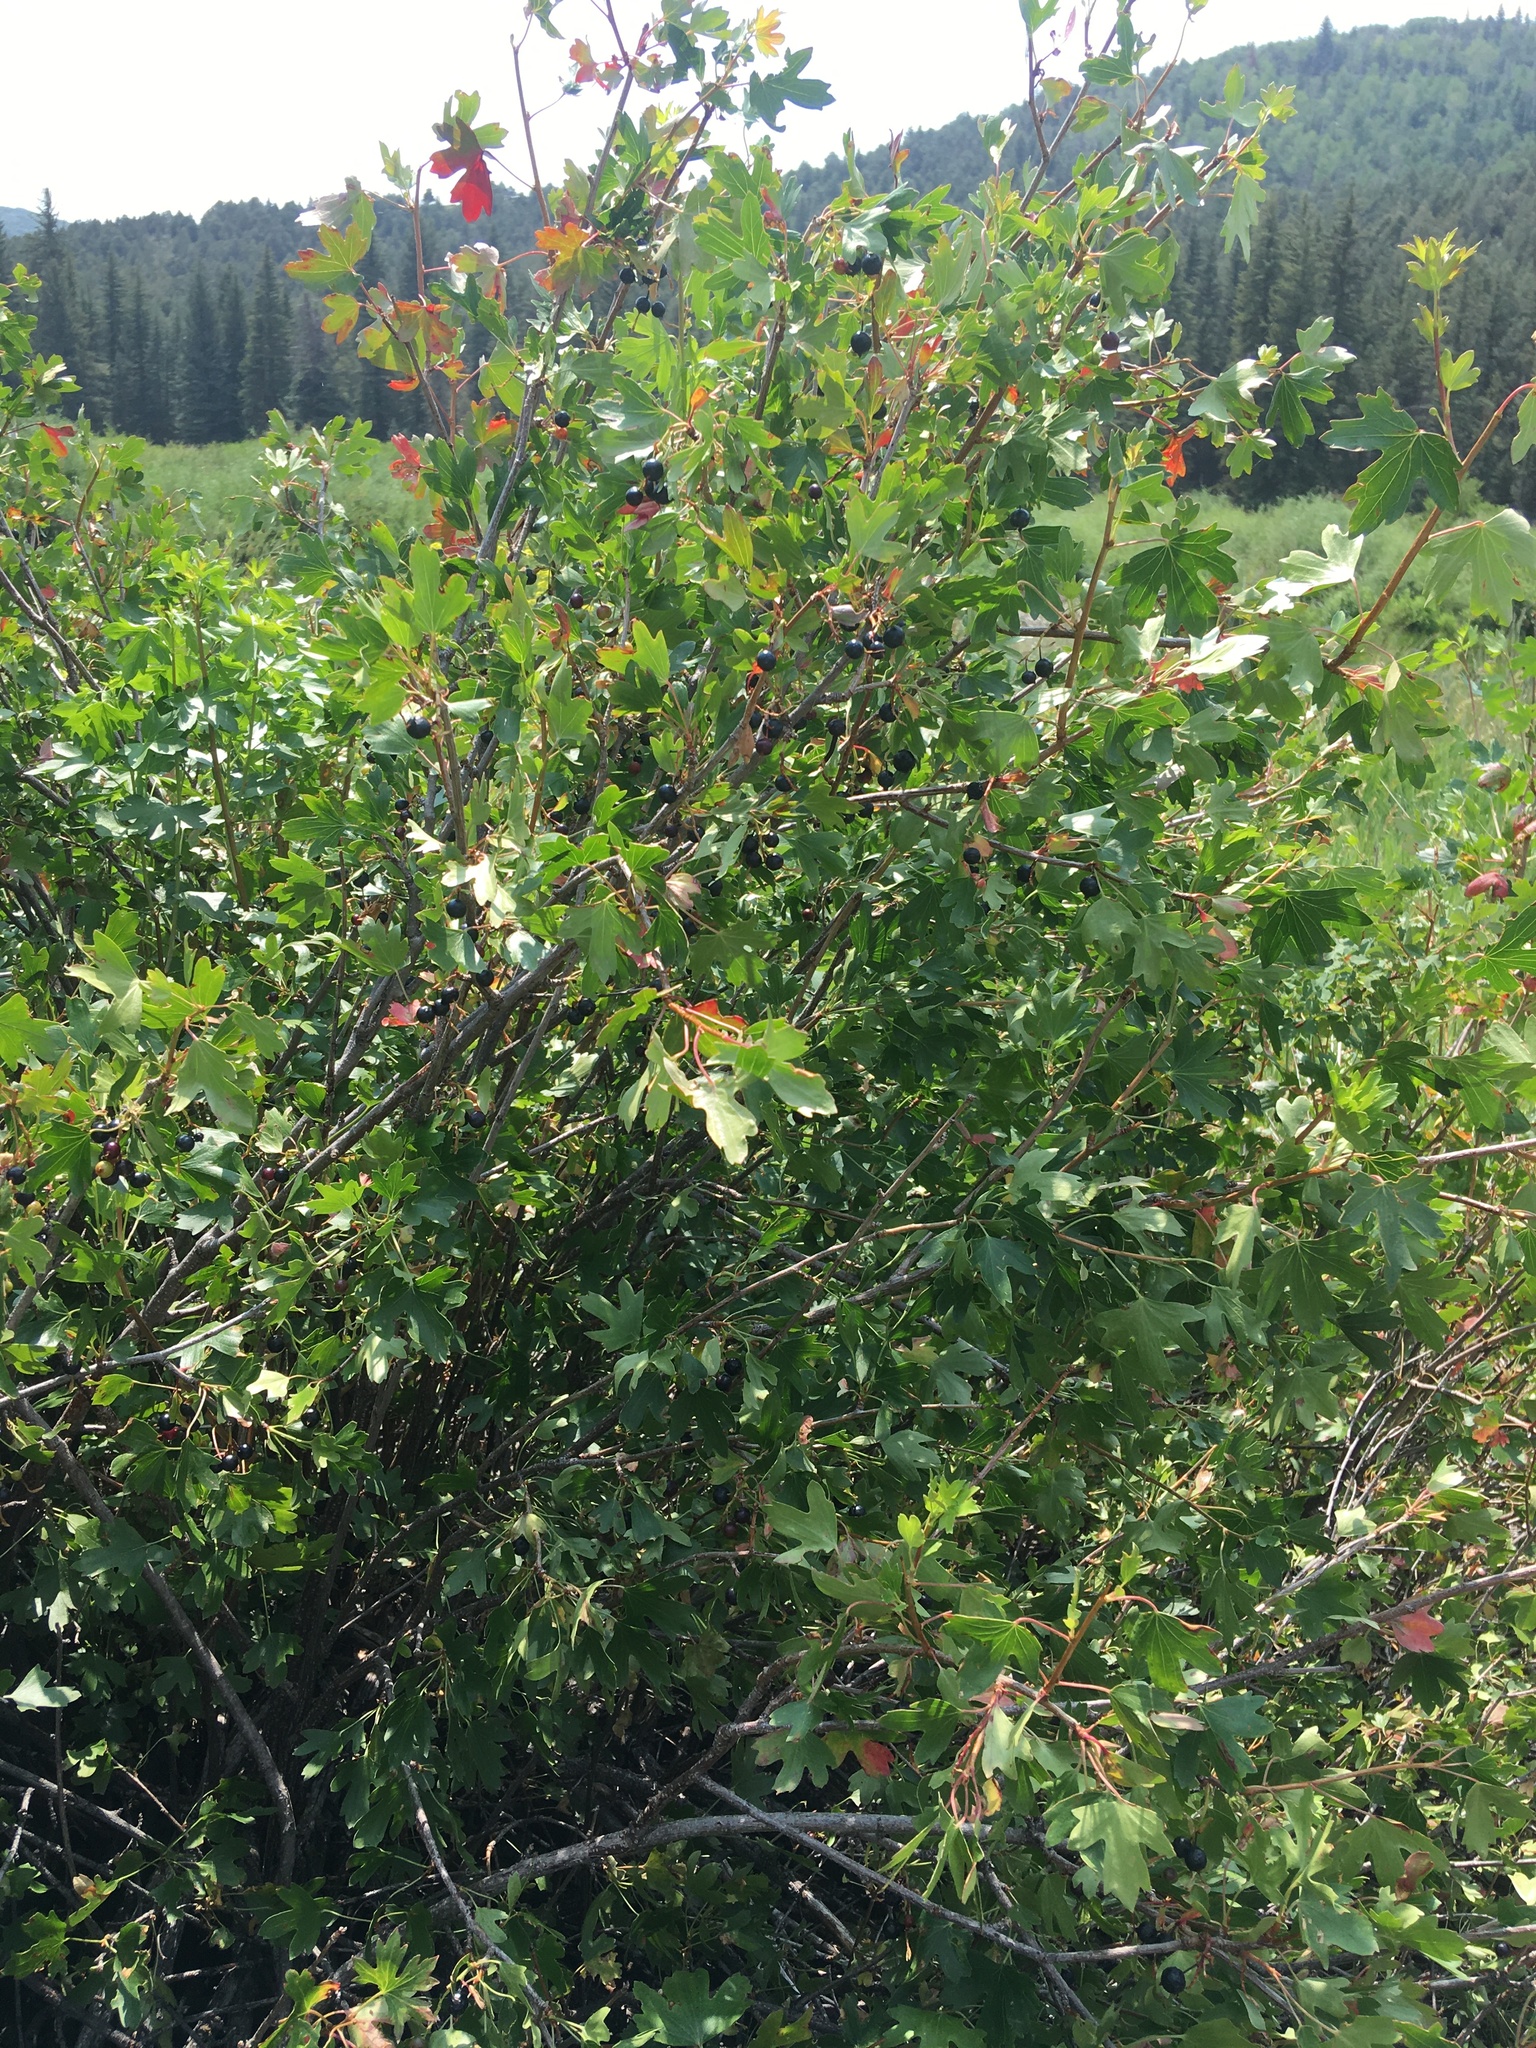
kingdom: Plantae
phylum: Tracheophyta
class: Magnoliopsida
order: Saxifragales
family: Grossulariaceae
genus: Ribes
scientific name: Ribes aureum
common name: Golden currant
